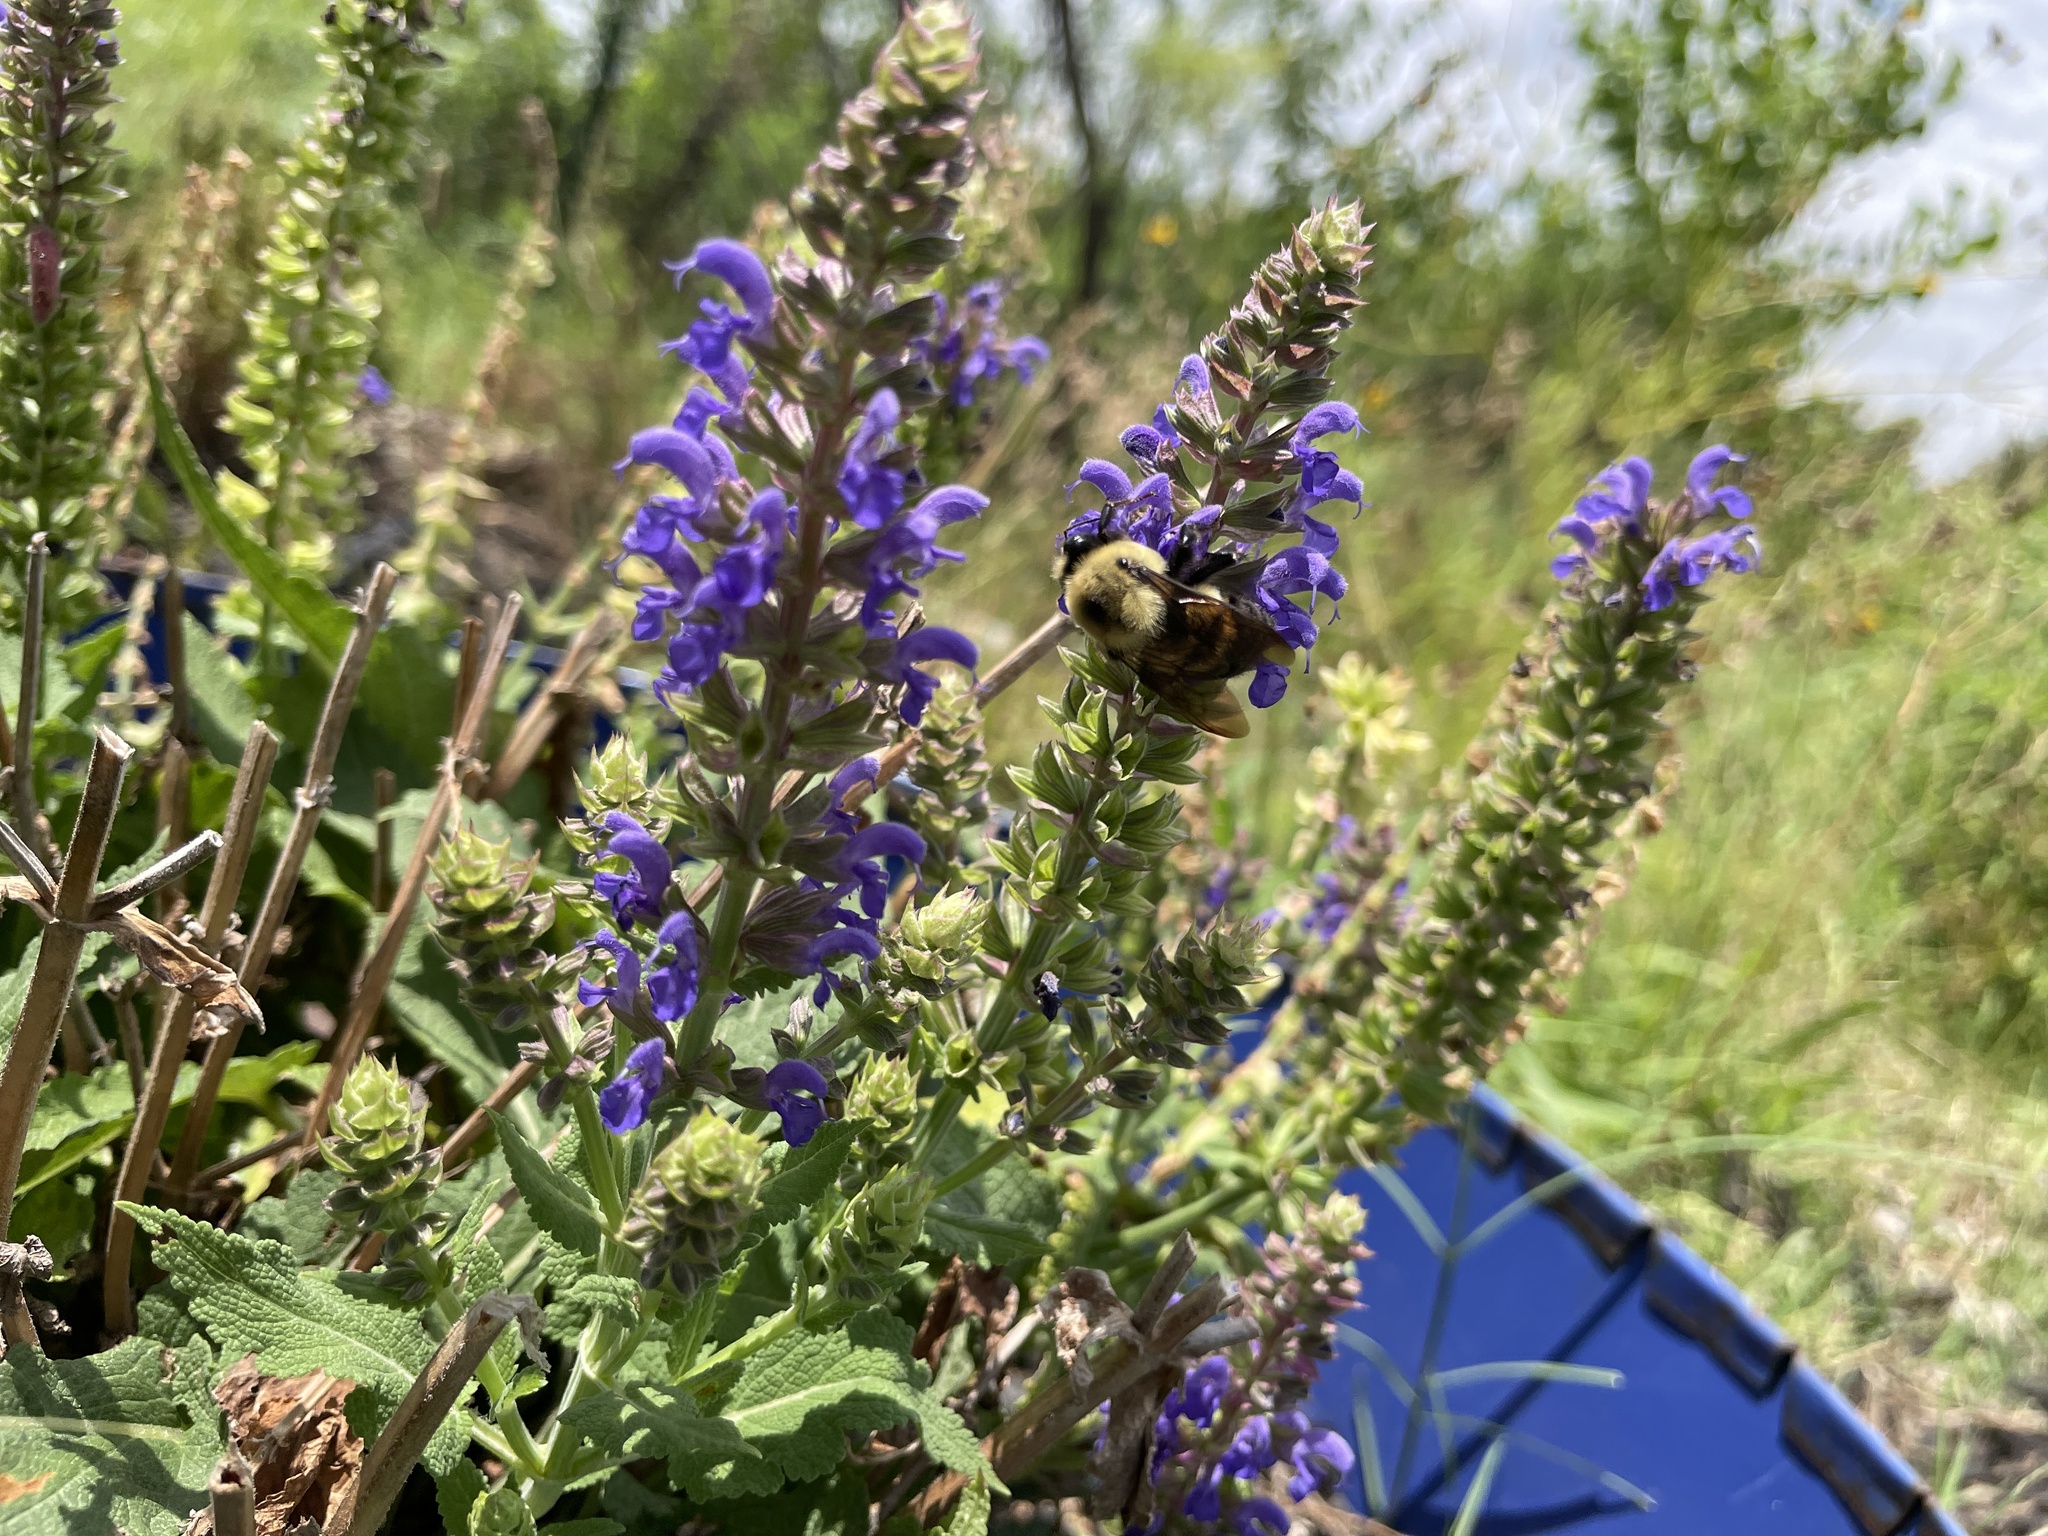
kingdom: Animalia
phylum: Arthropoda
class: Insecta
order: Hymenoptera
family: Apidae
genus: Bombus
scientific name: Bombus griseocollis
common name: Brown-belted bumble bee
